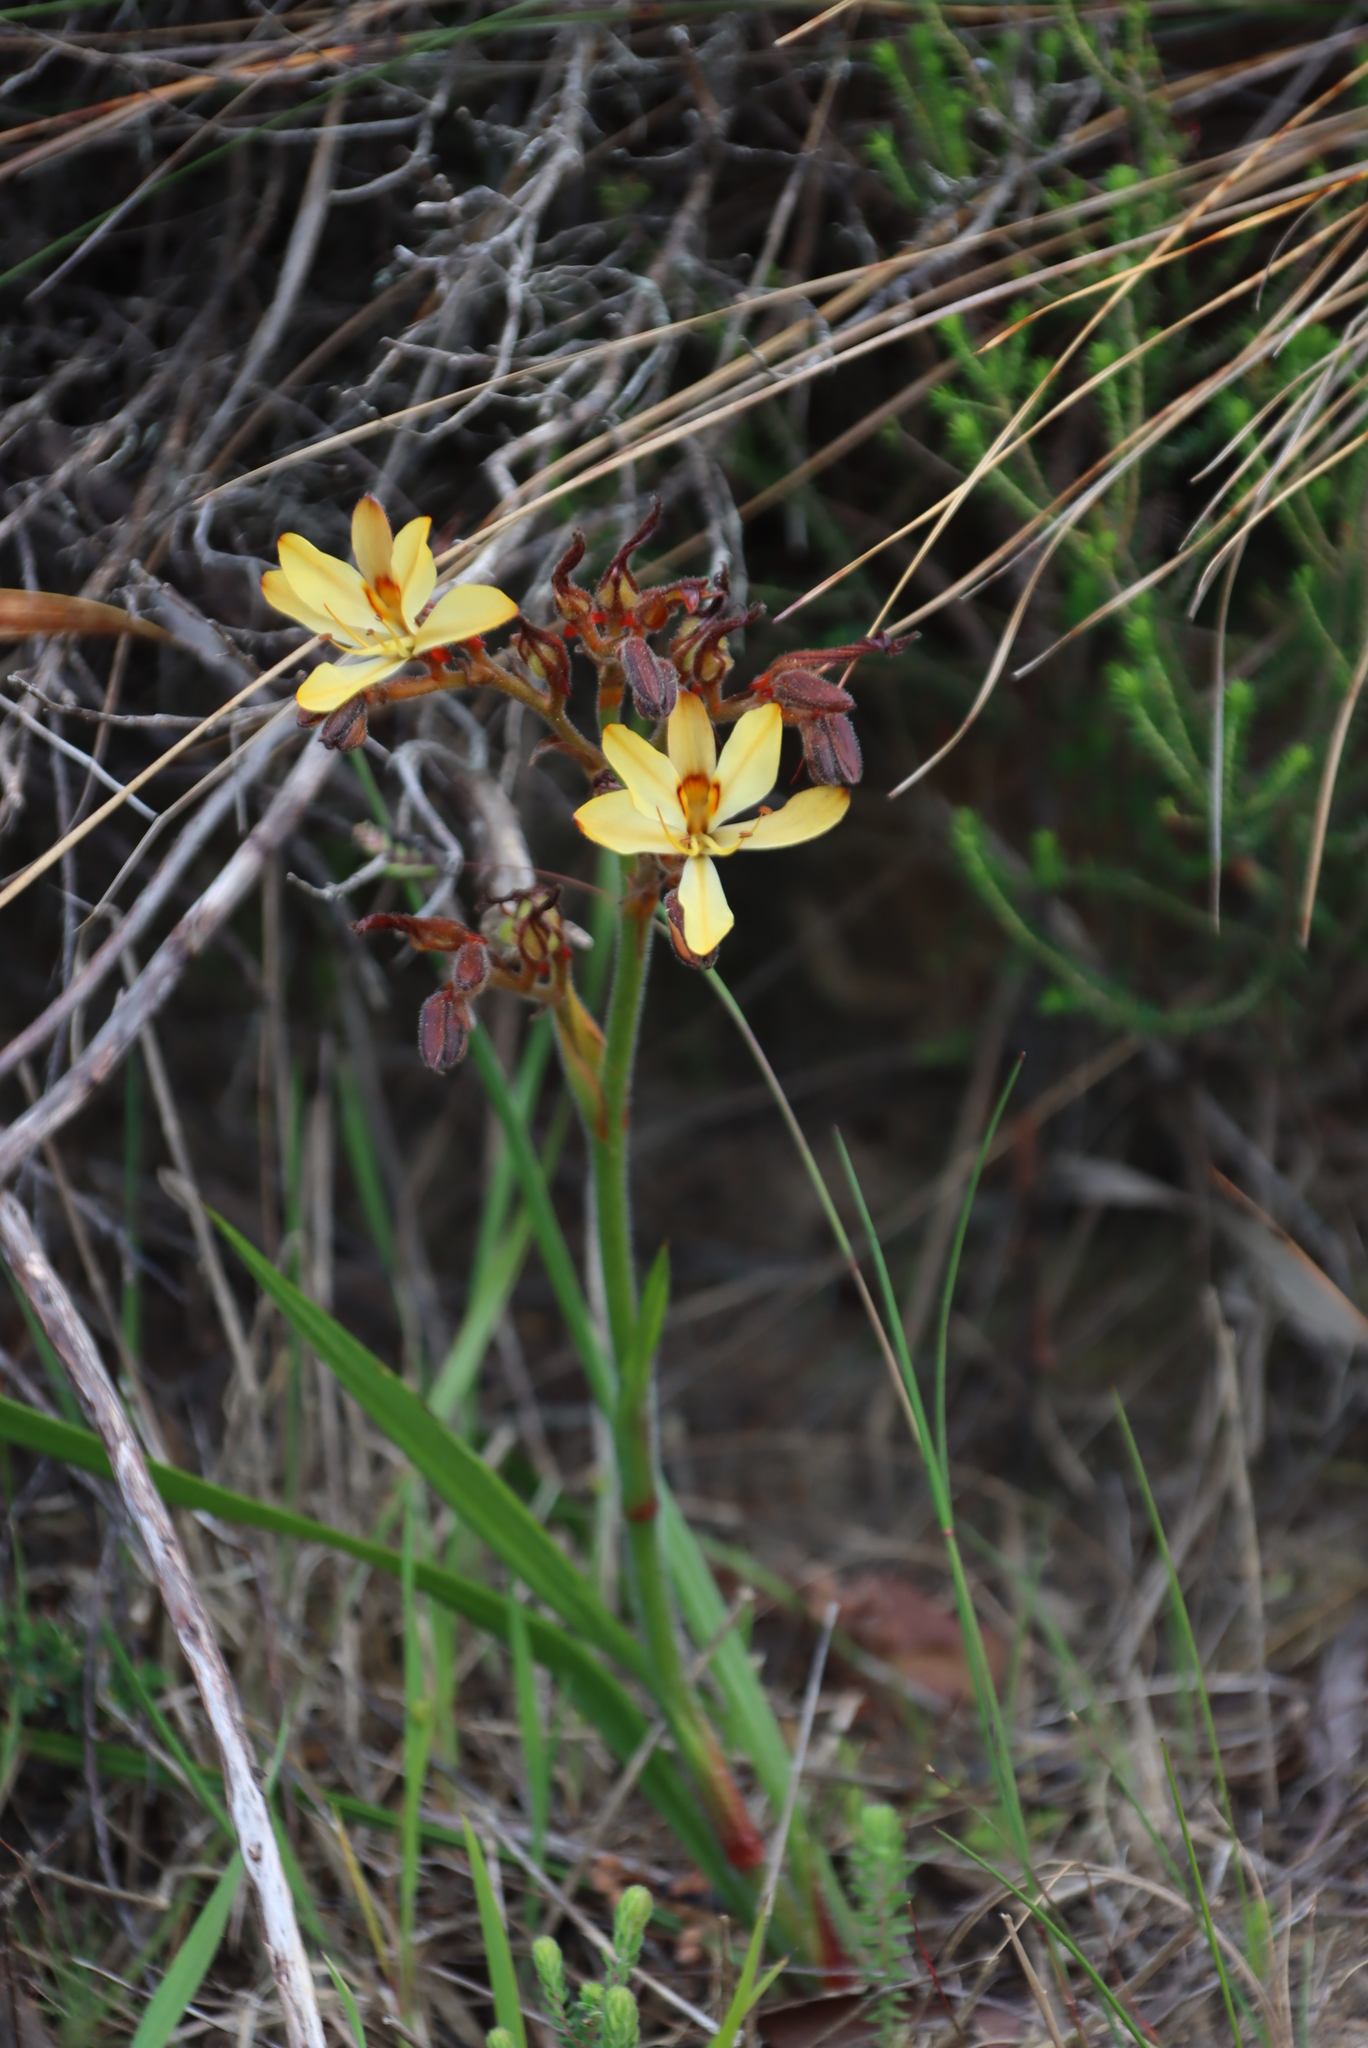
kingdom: Plantae
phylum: Tracheophyta
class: Liliopsida
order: Commelinales
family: Haemodoraceae
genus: Wachendorfia
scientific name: Wachendorfia paniculata
